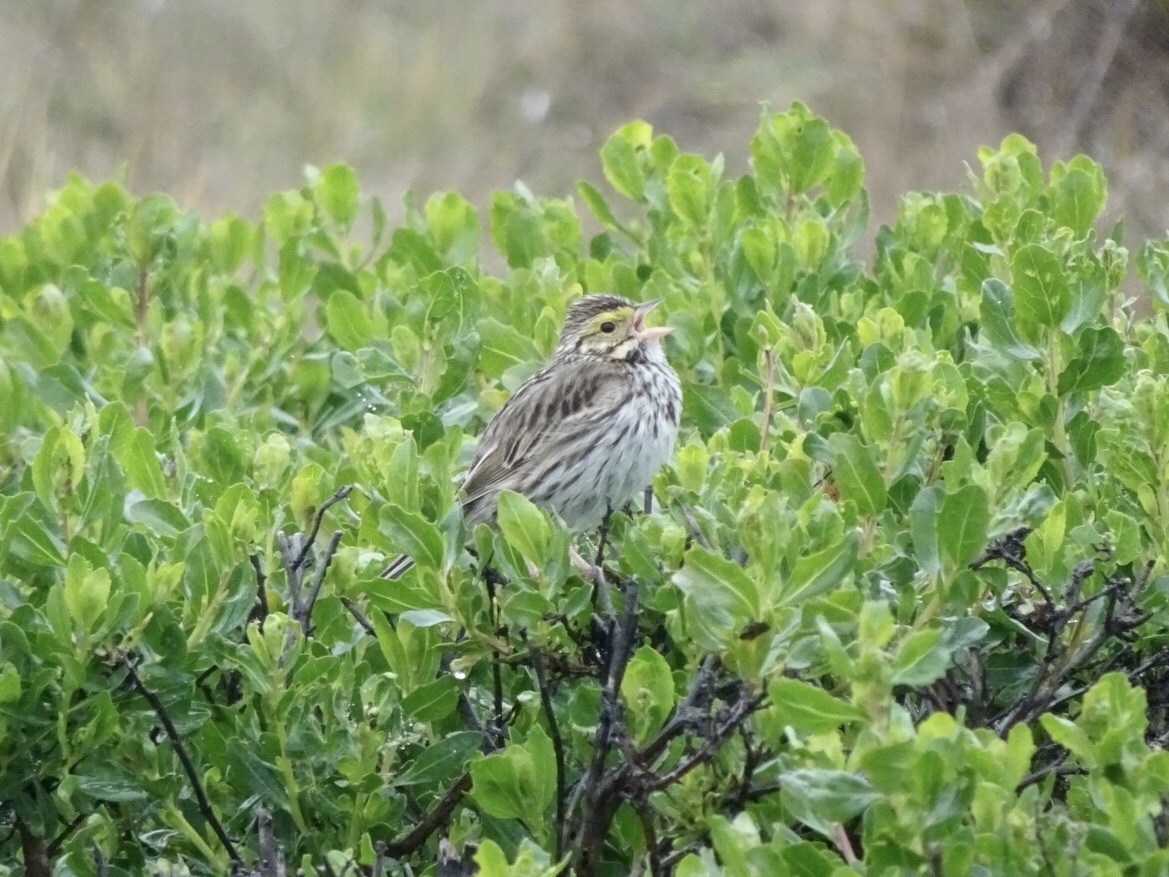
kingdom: Animalia
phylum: Chordata
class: Aves
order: Passeriformes
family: Passerellidae
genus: Passerculus
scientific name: Passerculus sandwichensis
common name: Savannah sparrow
